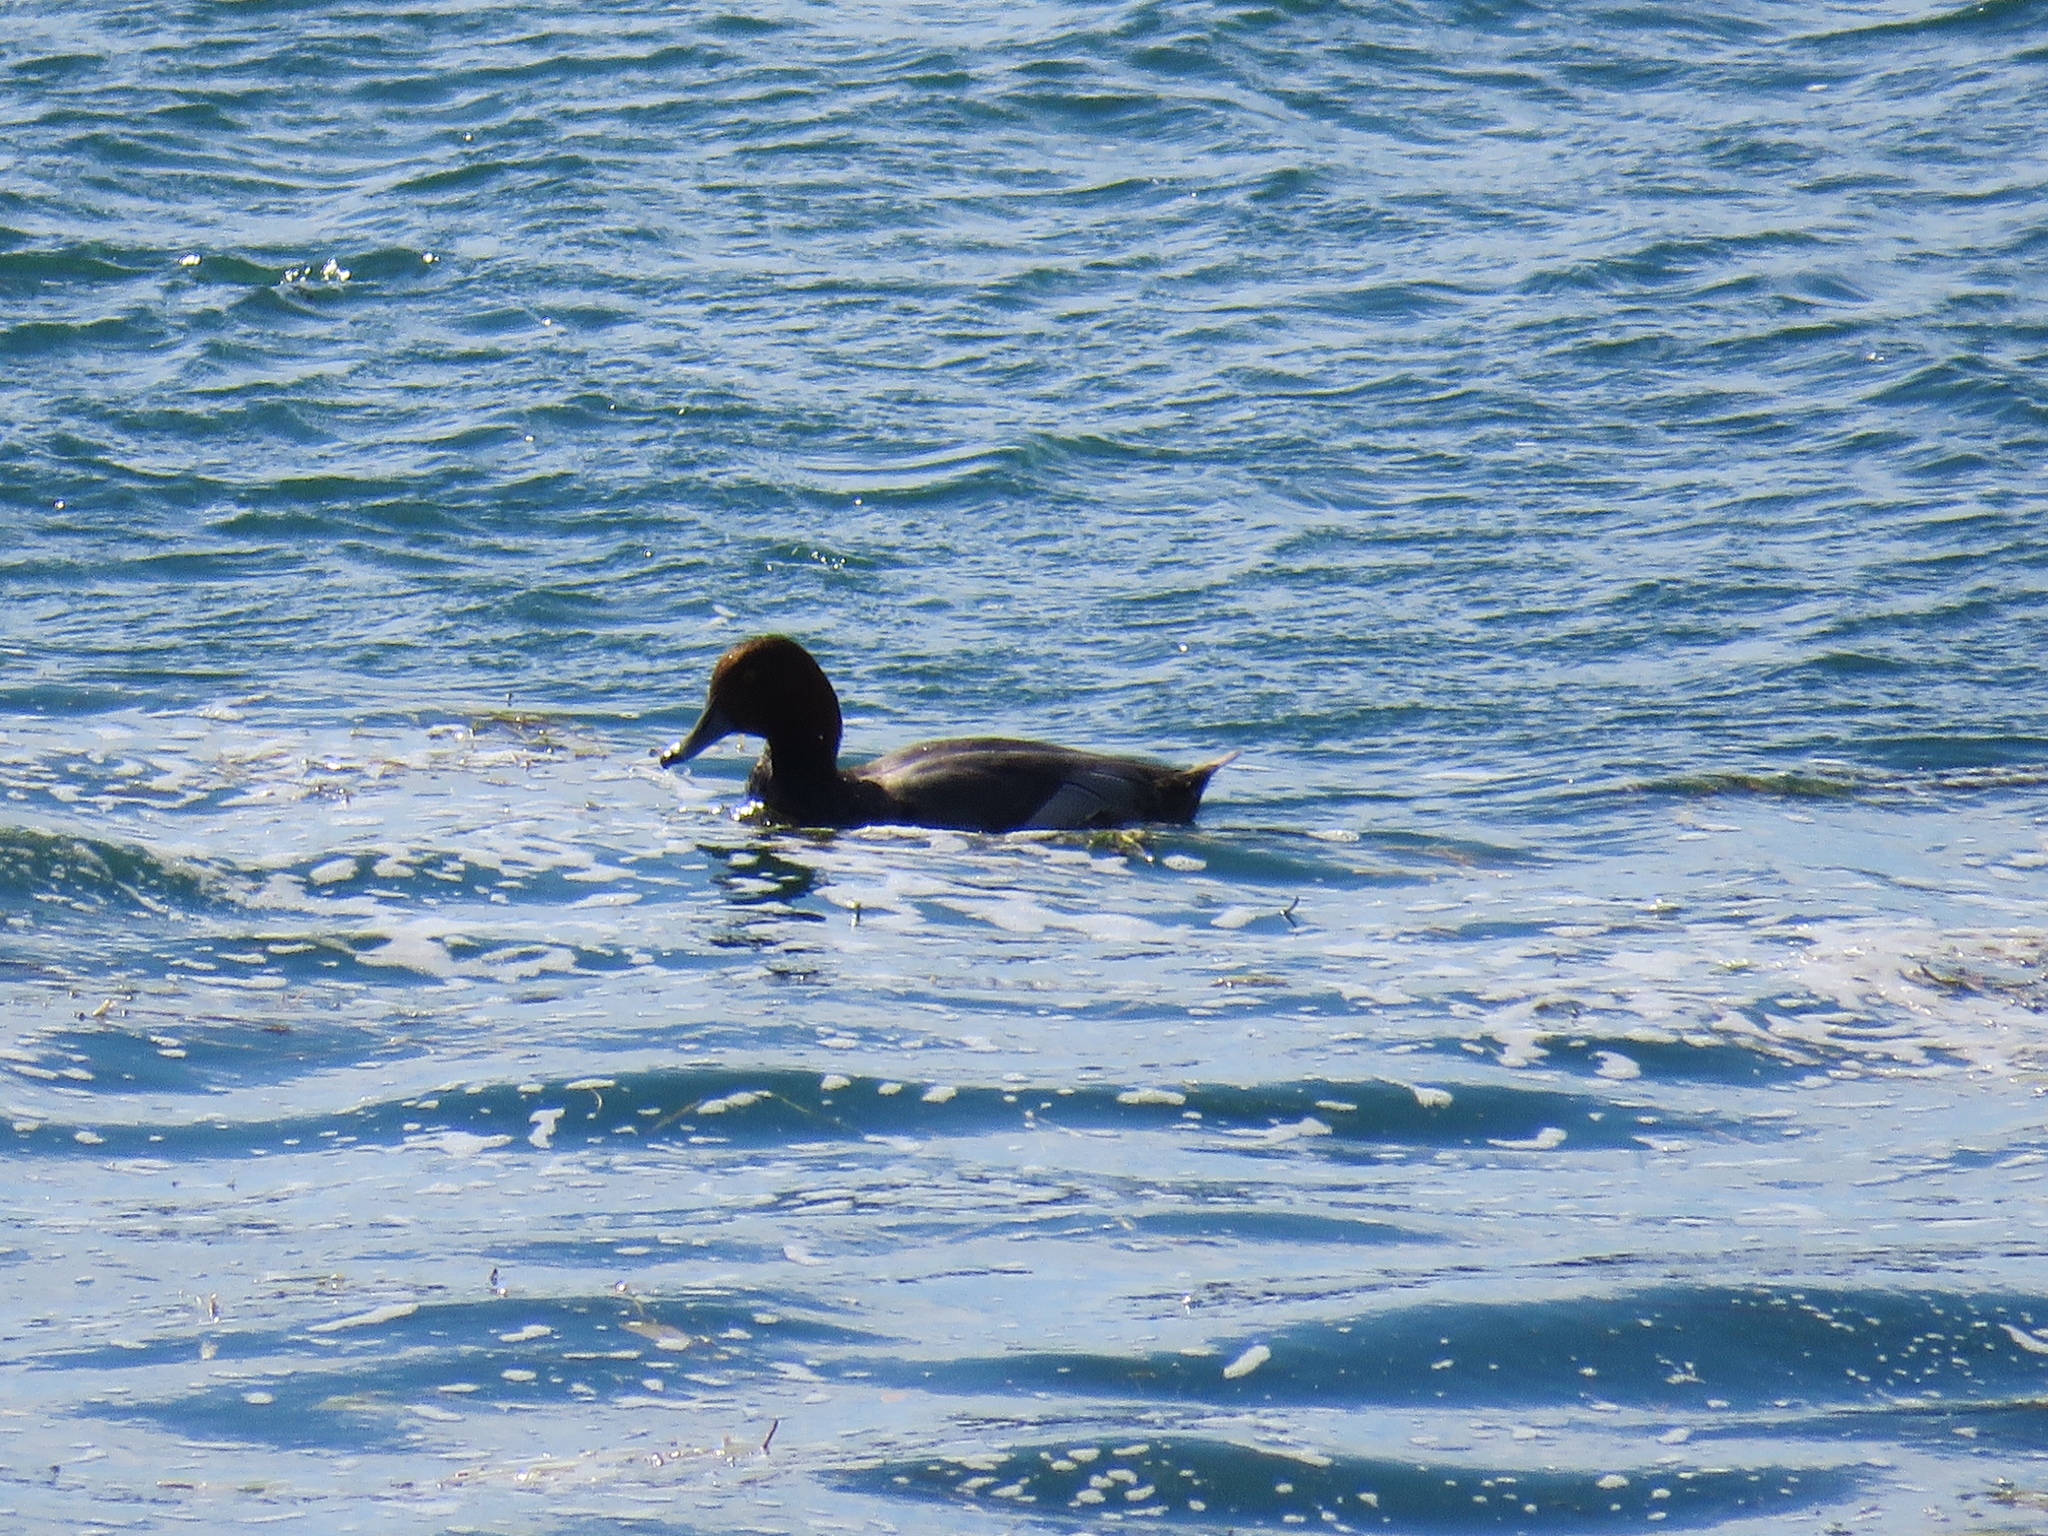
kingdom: Animalia
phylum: Chordata
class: Aves
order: Anseriformes
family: Anatidae
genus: Aythya
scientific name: Aythya americana
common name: Redhead
